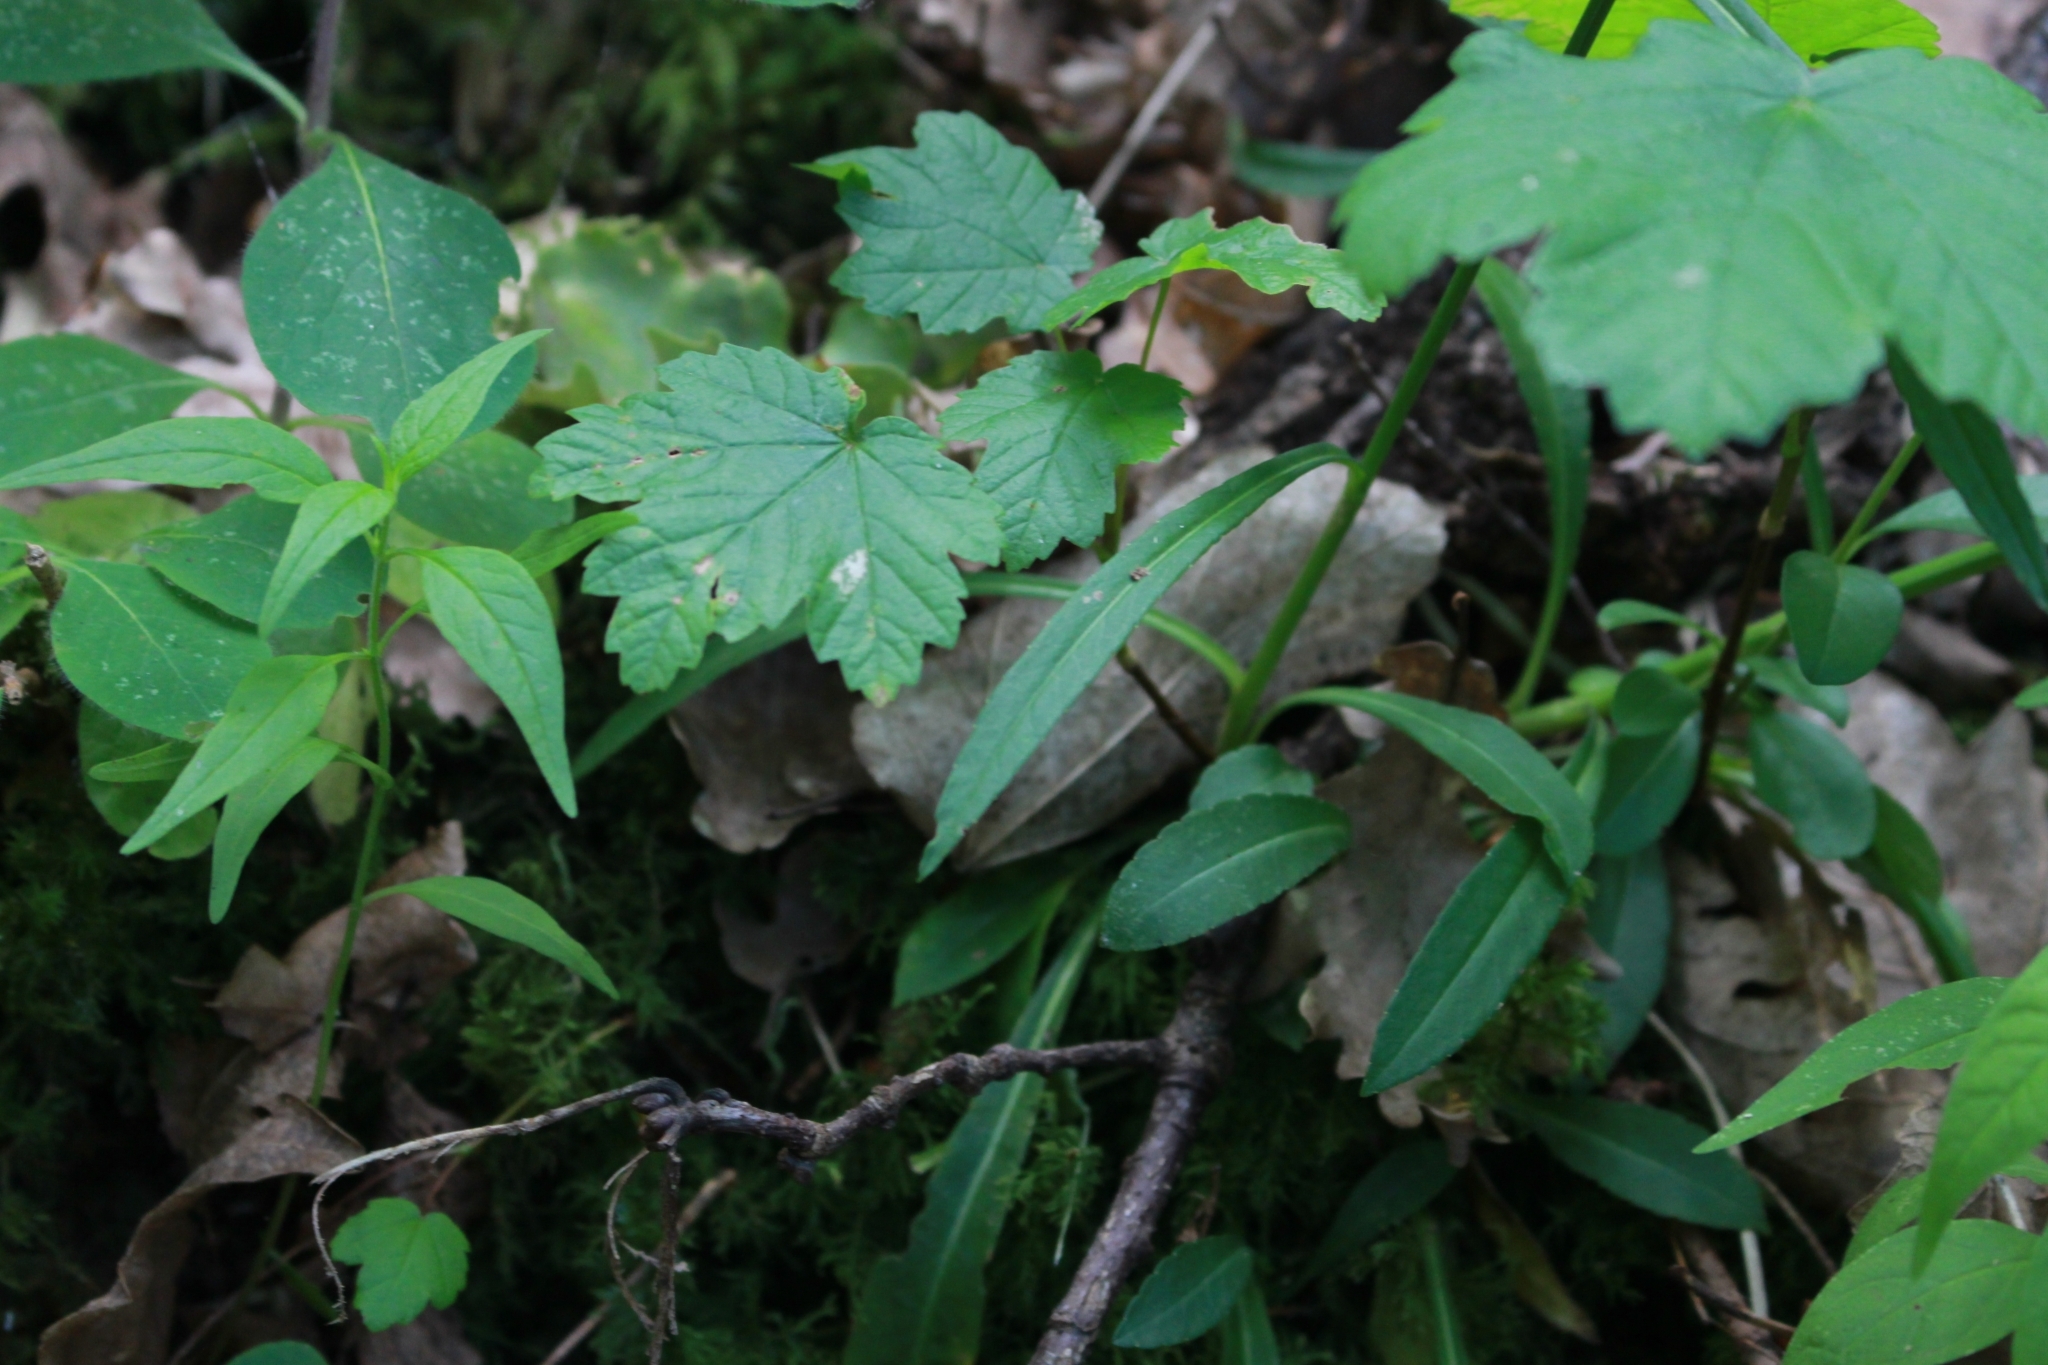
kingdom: Plantae
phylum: Tracheophyta
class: Magnoliopsida
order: Asterales
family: Campanulaceae
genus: Campanula
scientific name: Campanula persicifolia
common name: Peach-leaved bellflower
